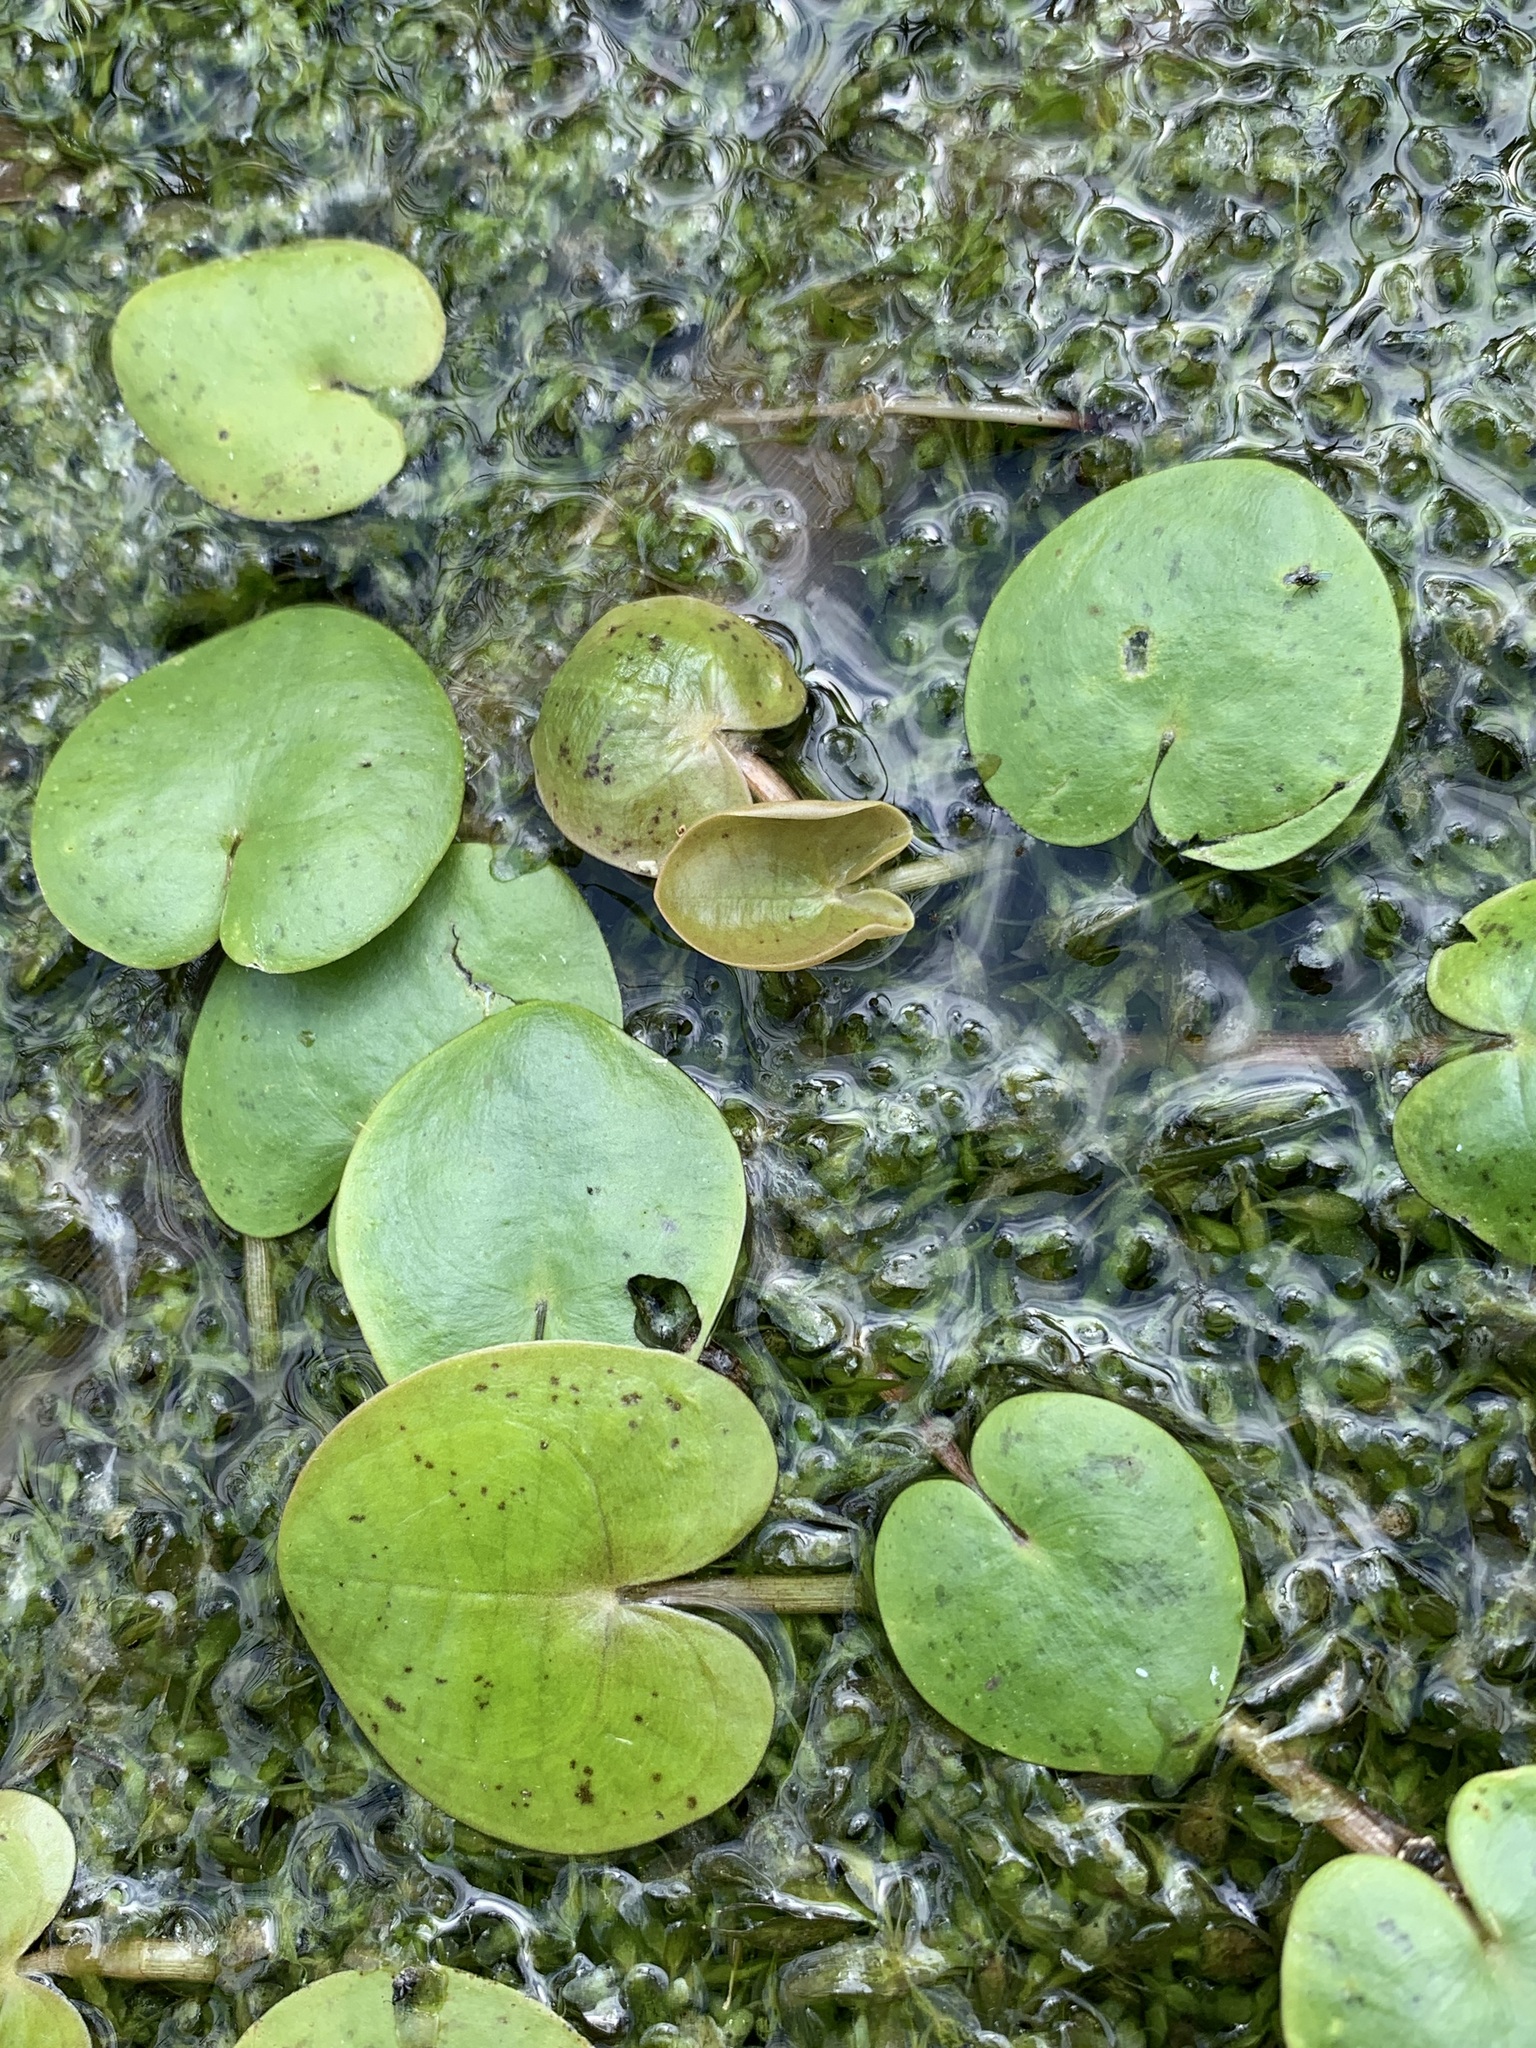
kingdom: Plantae
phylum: Tracheophyta
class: Liliopsida
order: Alismatales
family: Hydrocharitaceae
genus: Hydrocharis
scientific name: Hydrocharis morsus-ranae
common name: Frogbit
